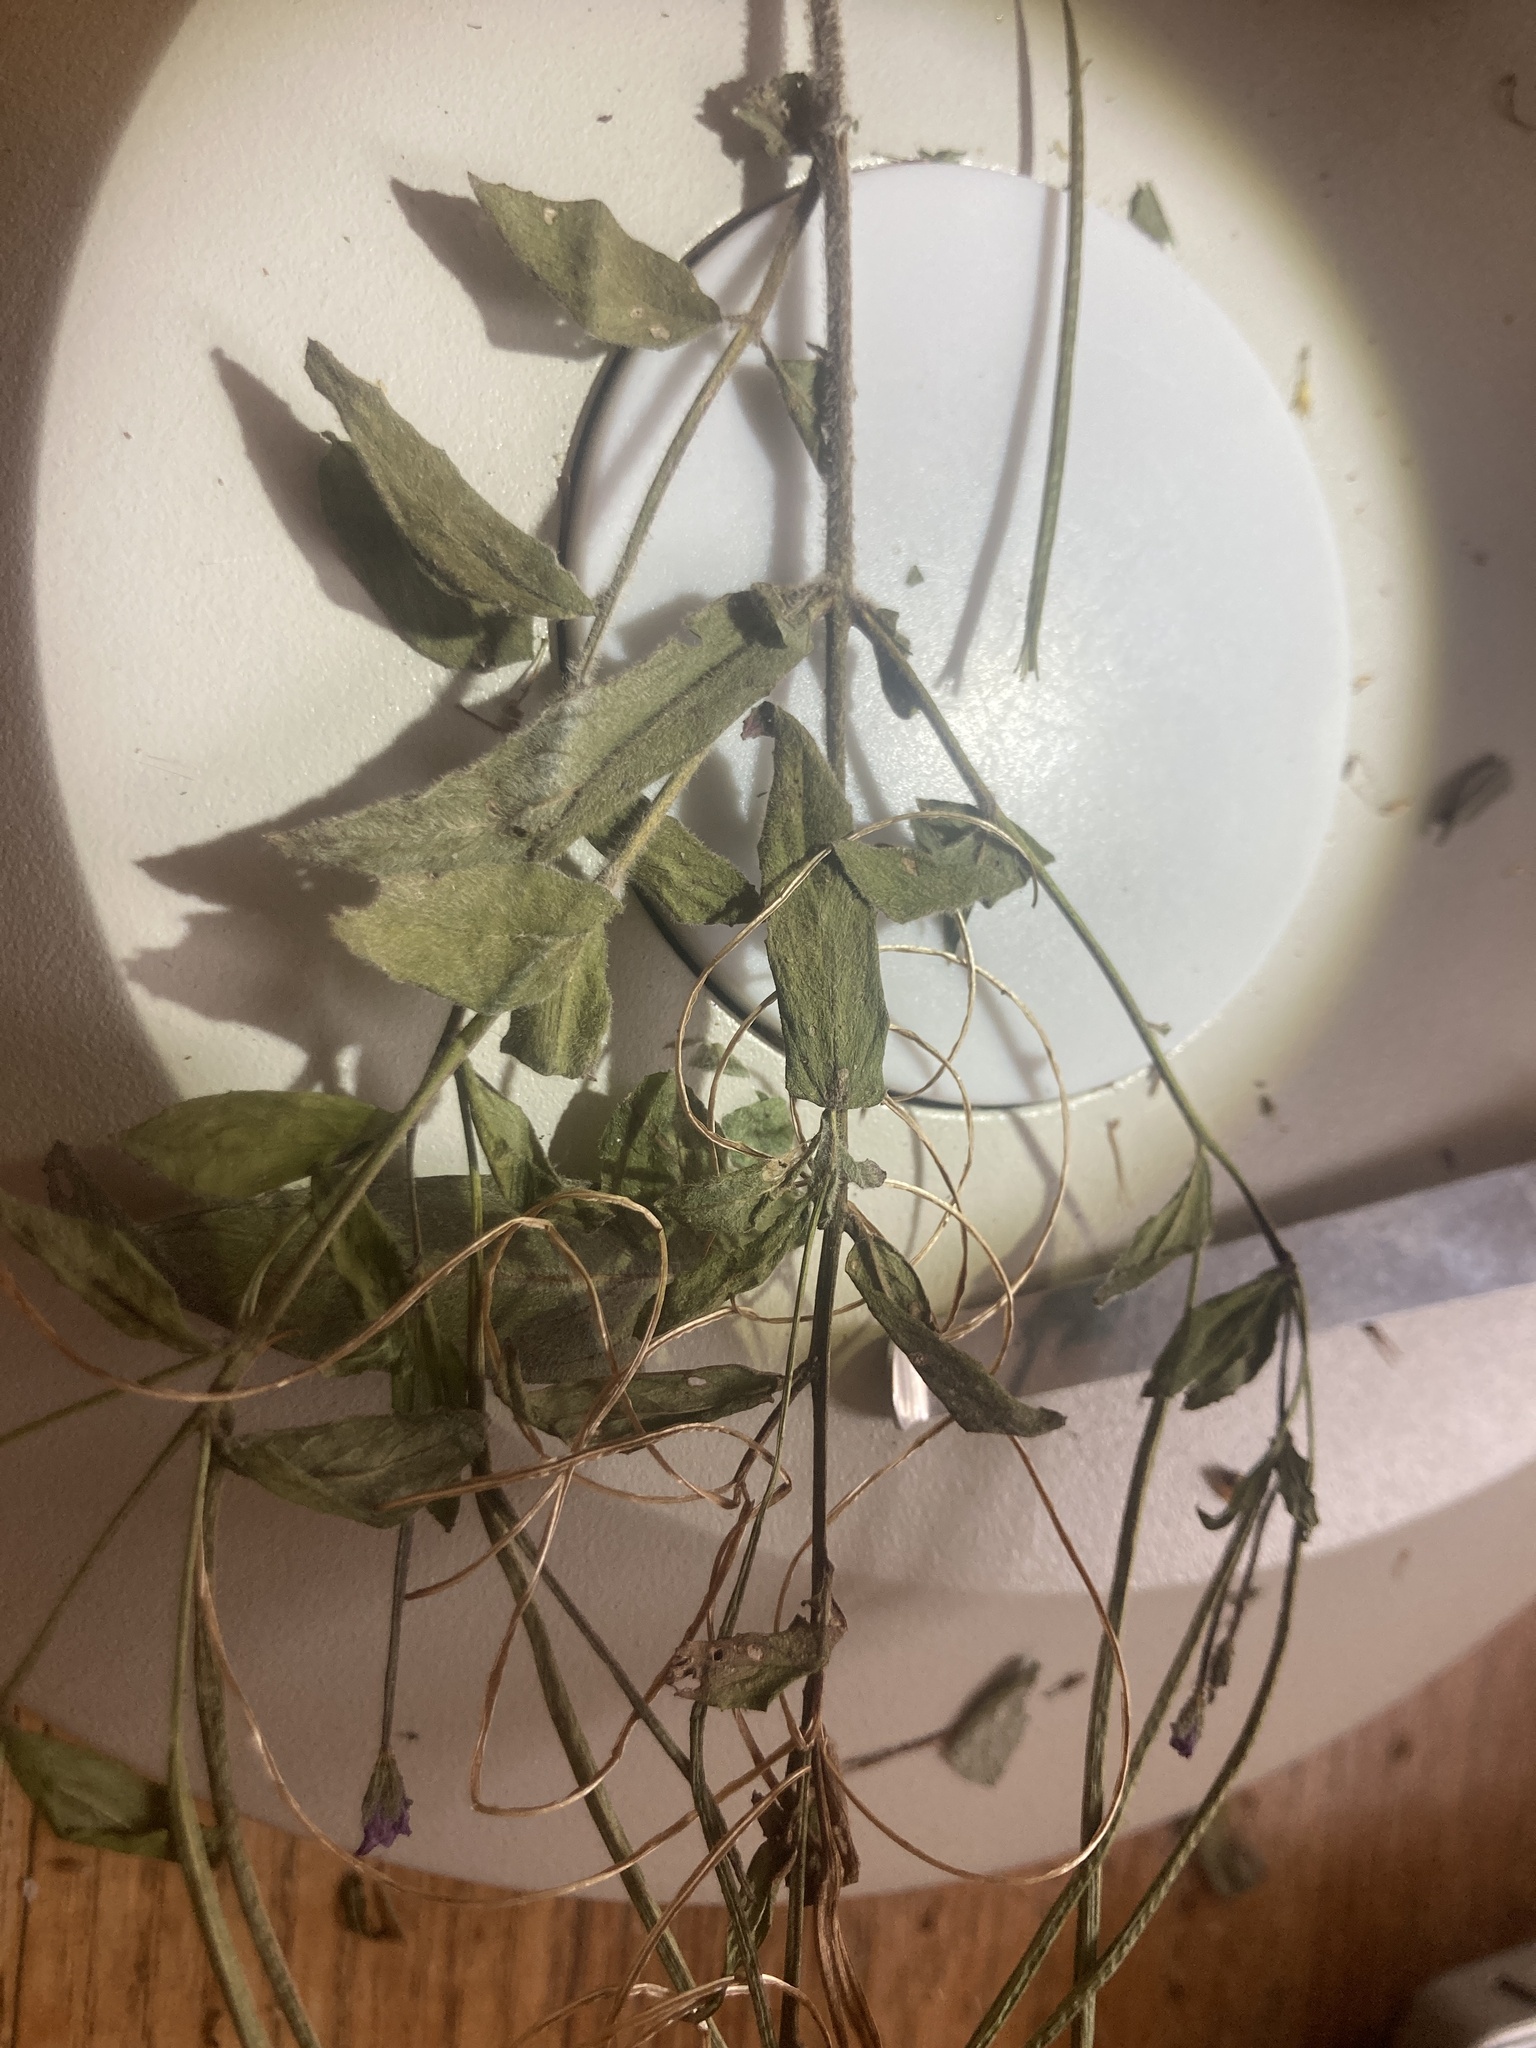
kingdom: Plantae
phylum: Tracheophyta
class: Magnoliopsida
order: Myrtales
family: Onagraceae
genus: Epilobium
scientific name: Epilobium parviflorum
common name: Hoary willowherb
